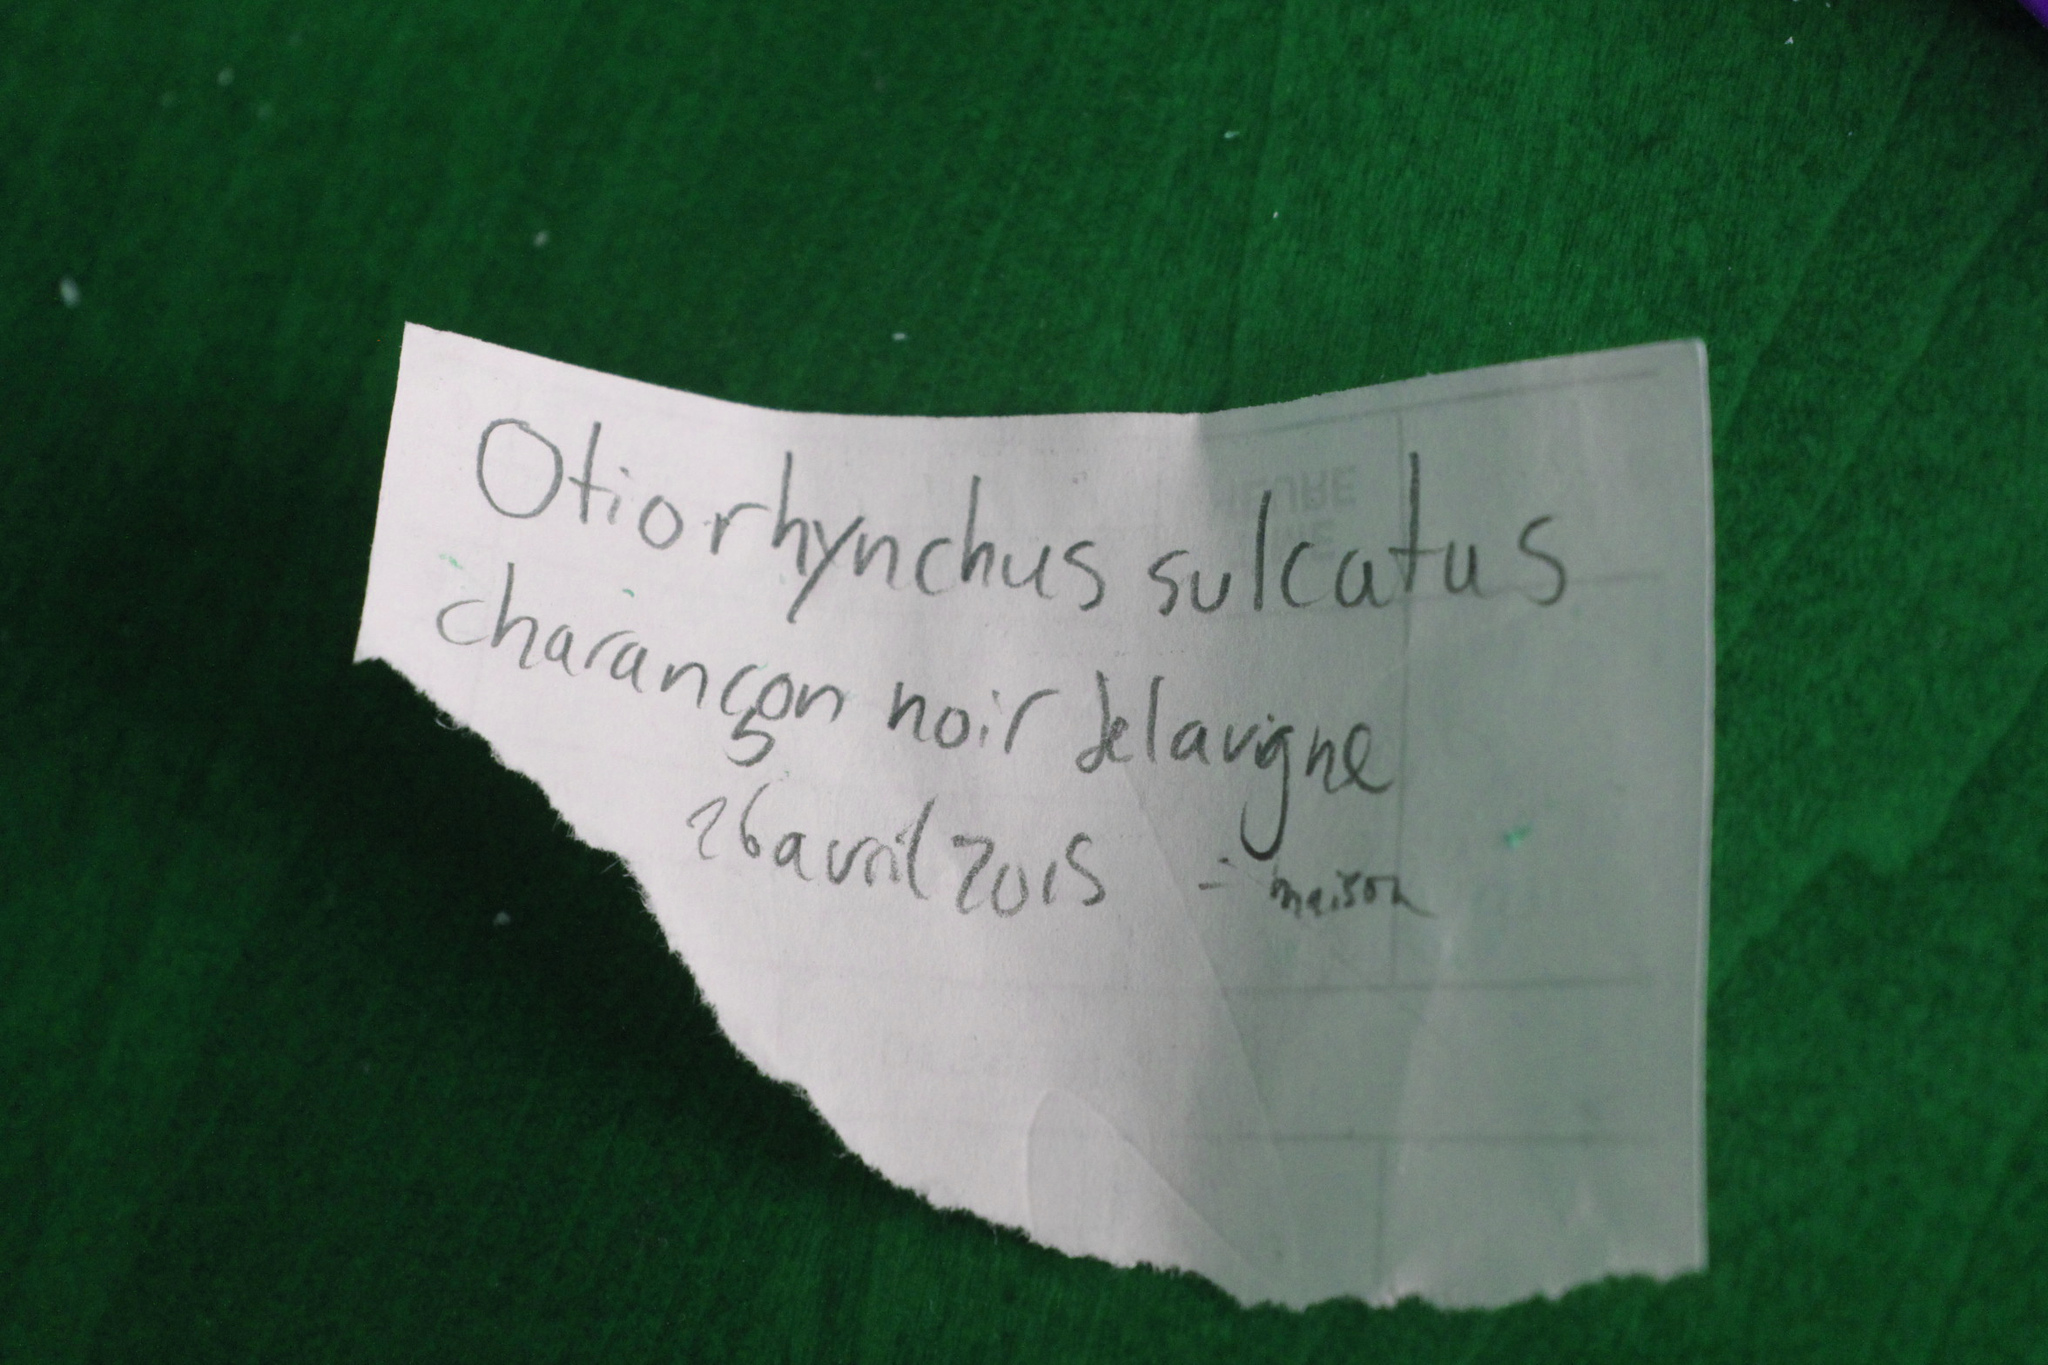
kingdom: Animalia
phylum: Arthropoda
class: Insecta
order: Coleoptera
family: Curculionidae
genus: Otiorhynchus
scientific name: Otiorhynchus sulcatus
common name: Black vine weevil
